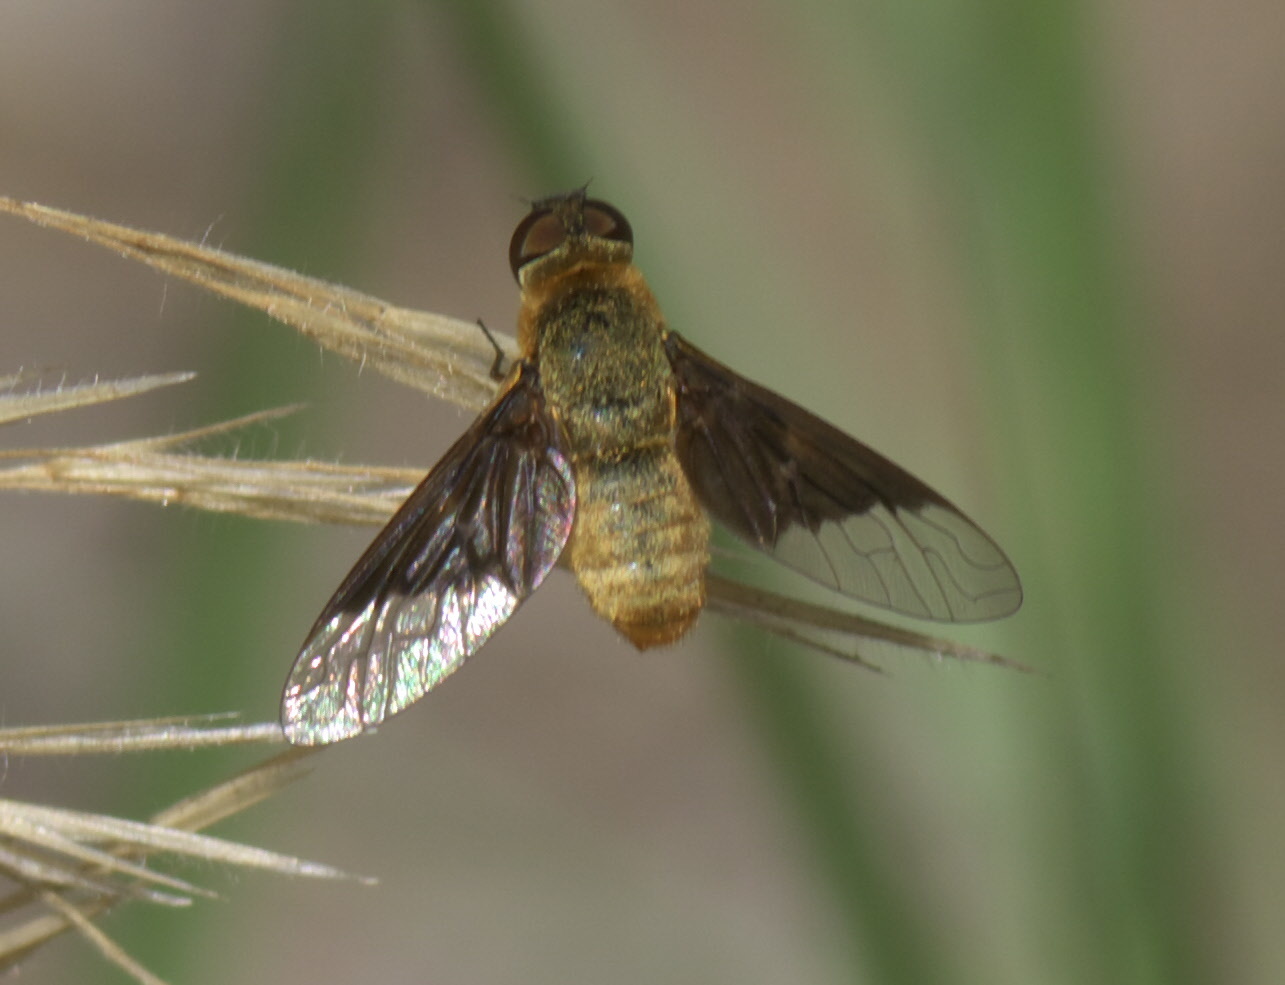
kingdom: Animalia
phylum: Arthropoda
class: Insecta
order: Diptera
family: Bombyliidae
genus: Chrysanthrax
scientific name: Chrysanthrax cypris
